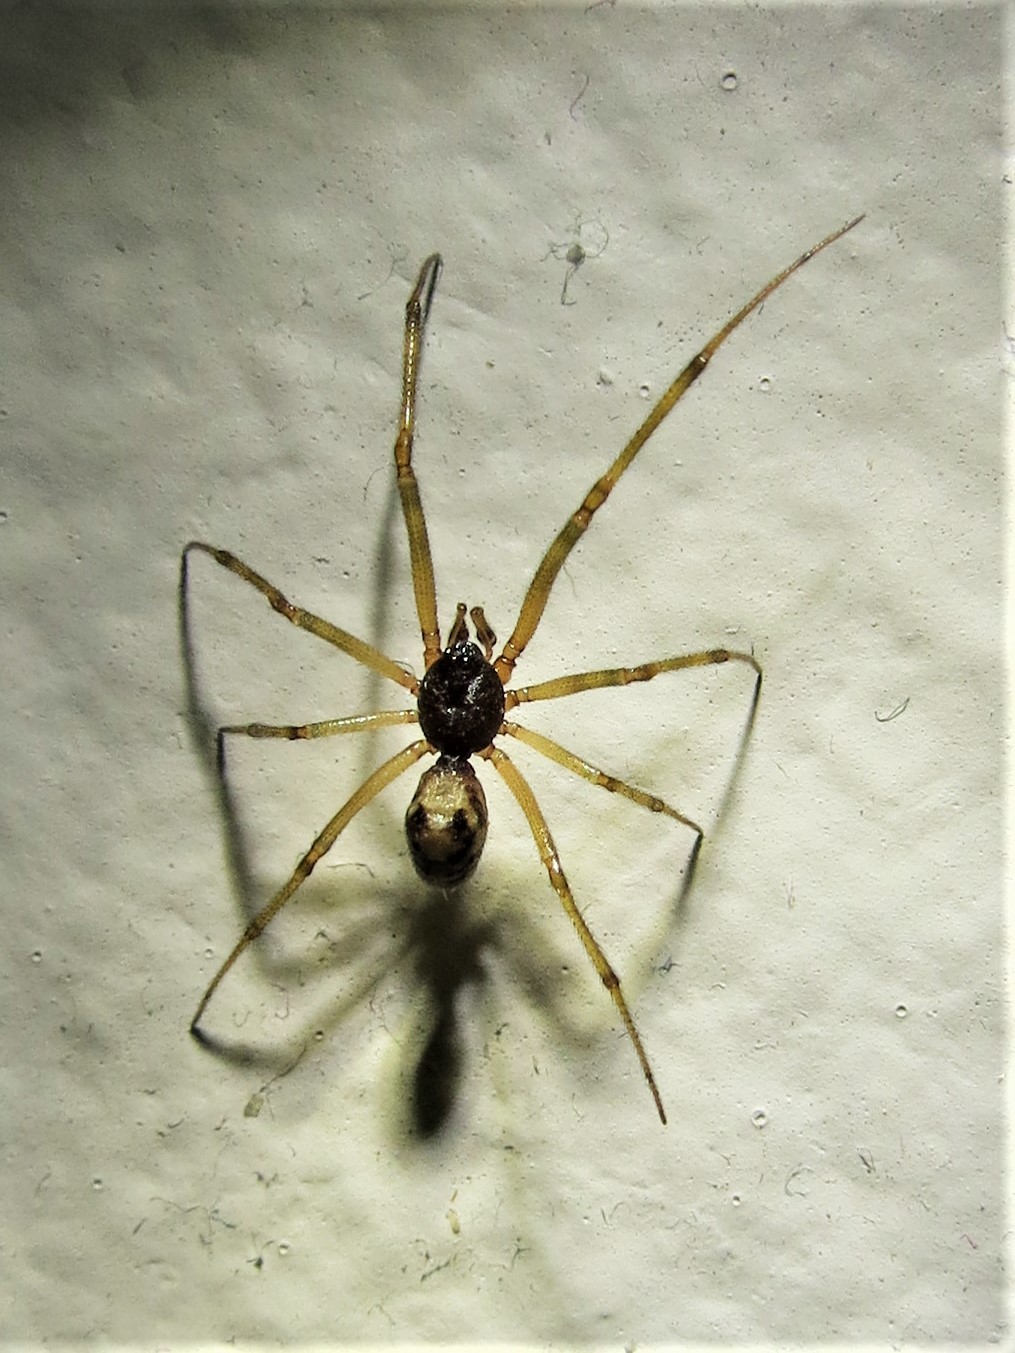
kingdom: Animalia
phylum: Arthropoda
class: Arachnida
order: Araneae
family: Theridiidae
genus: Steatoda
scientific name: Steatoda triangulosa
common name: Triangulate bud spider
